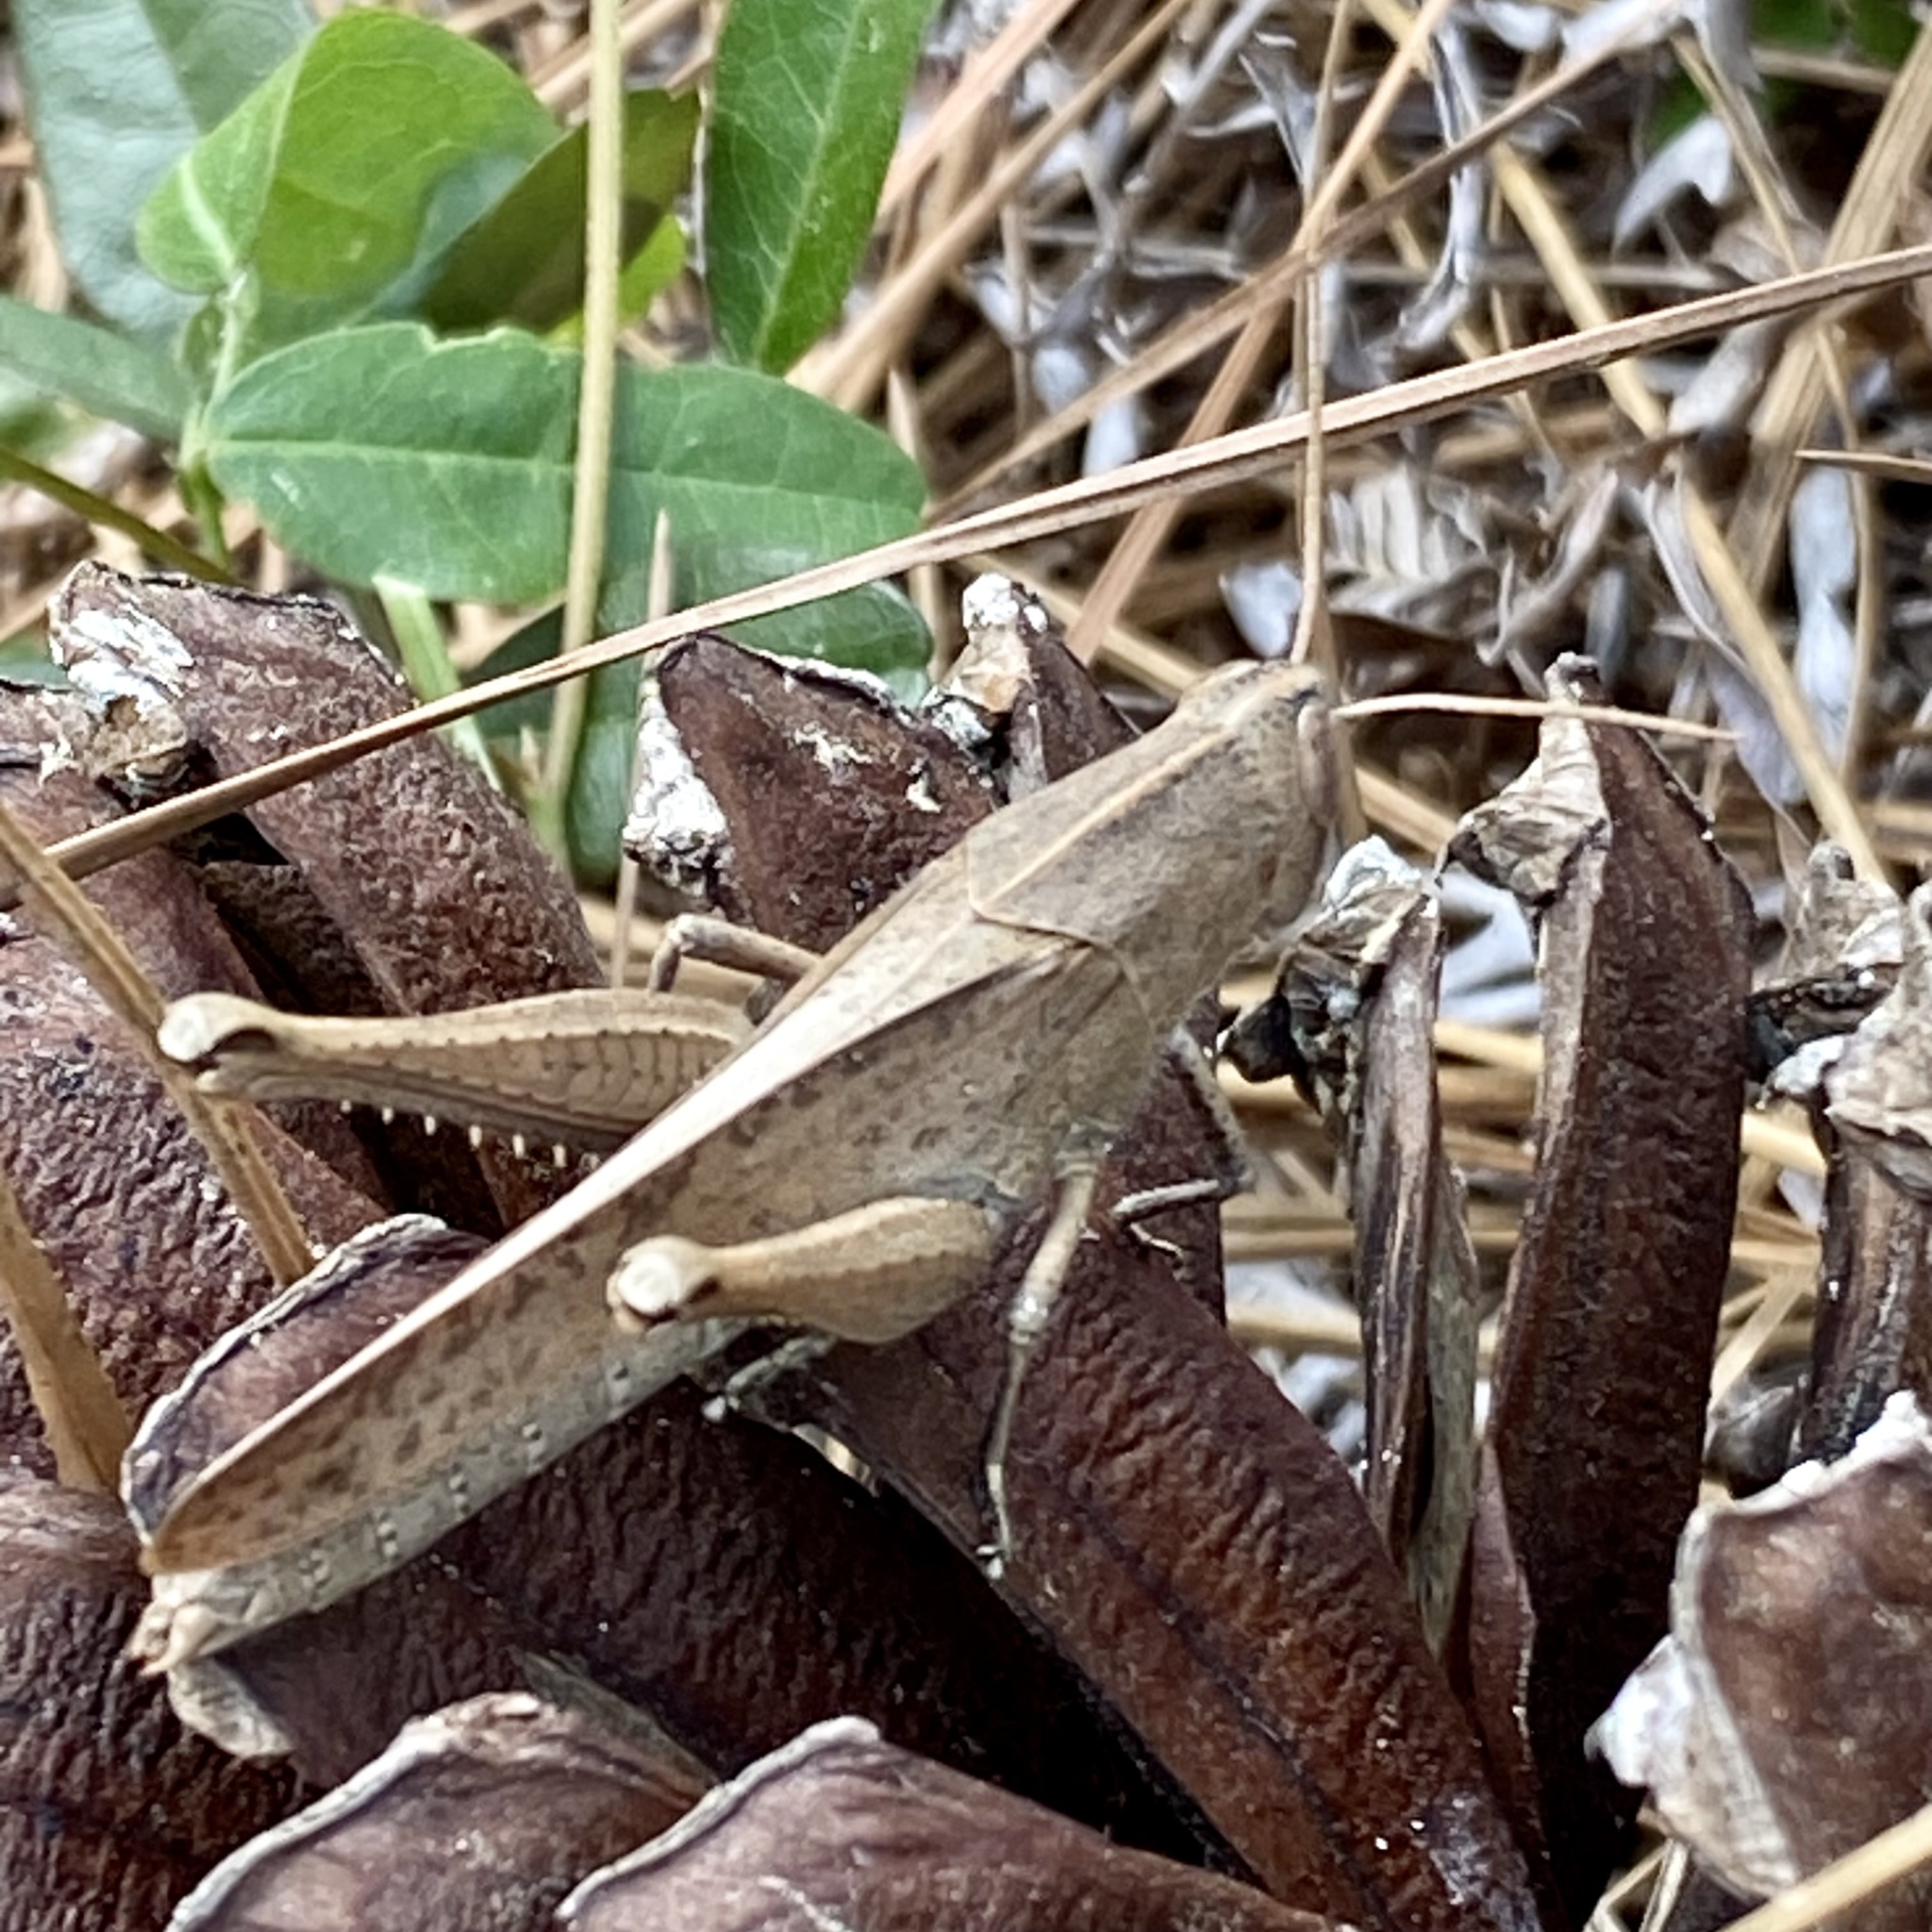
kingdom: Animalia
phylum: Arthropoda
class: Insecta
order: Orthoptera
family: Acrididae
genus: Schistocerca
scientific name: Schistocerca damnifica
